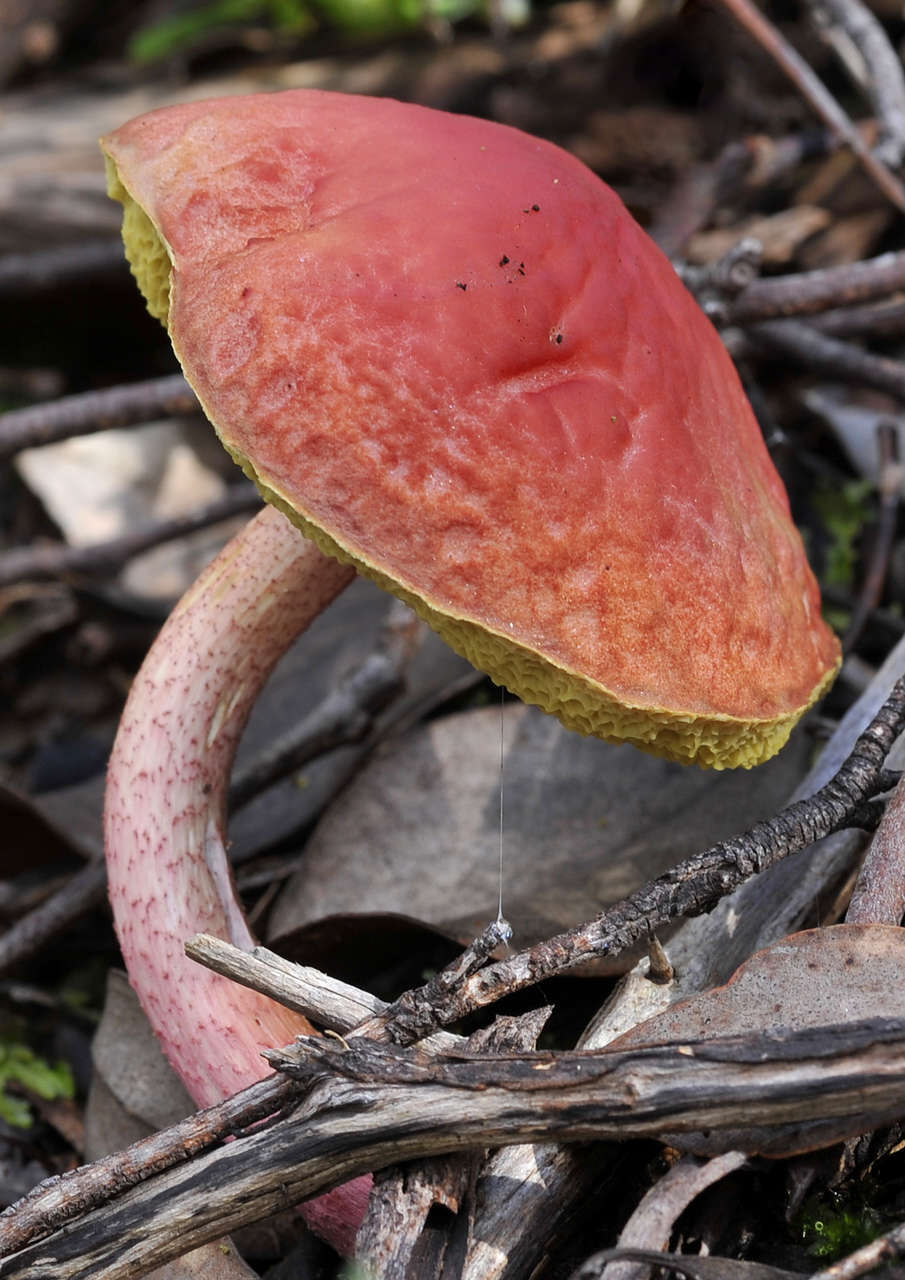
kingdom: Fungi
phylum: Basidiomycota
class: Agaricomycetes
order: Boletales
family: Boletaceae
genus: Boletellus
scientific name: Boletellus obscurecoccineus
